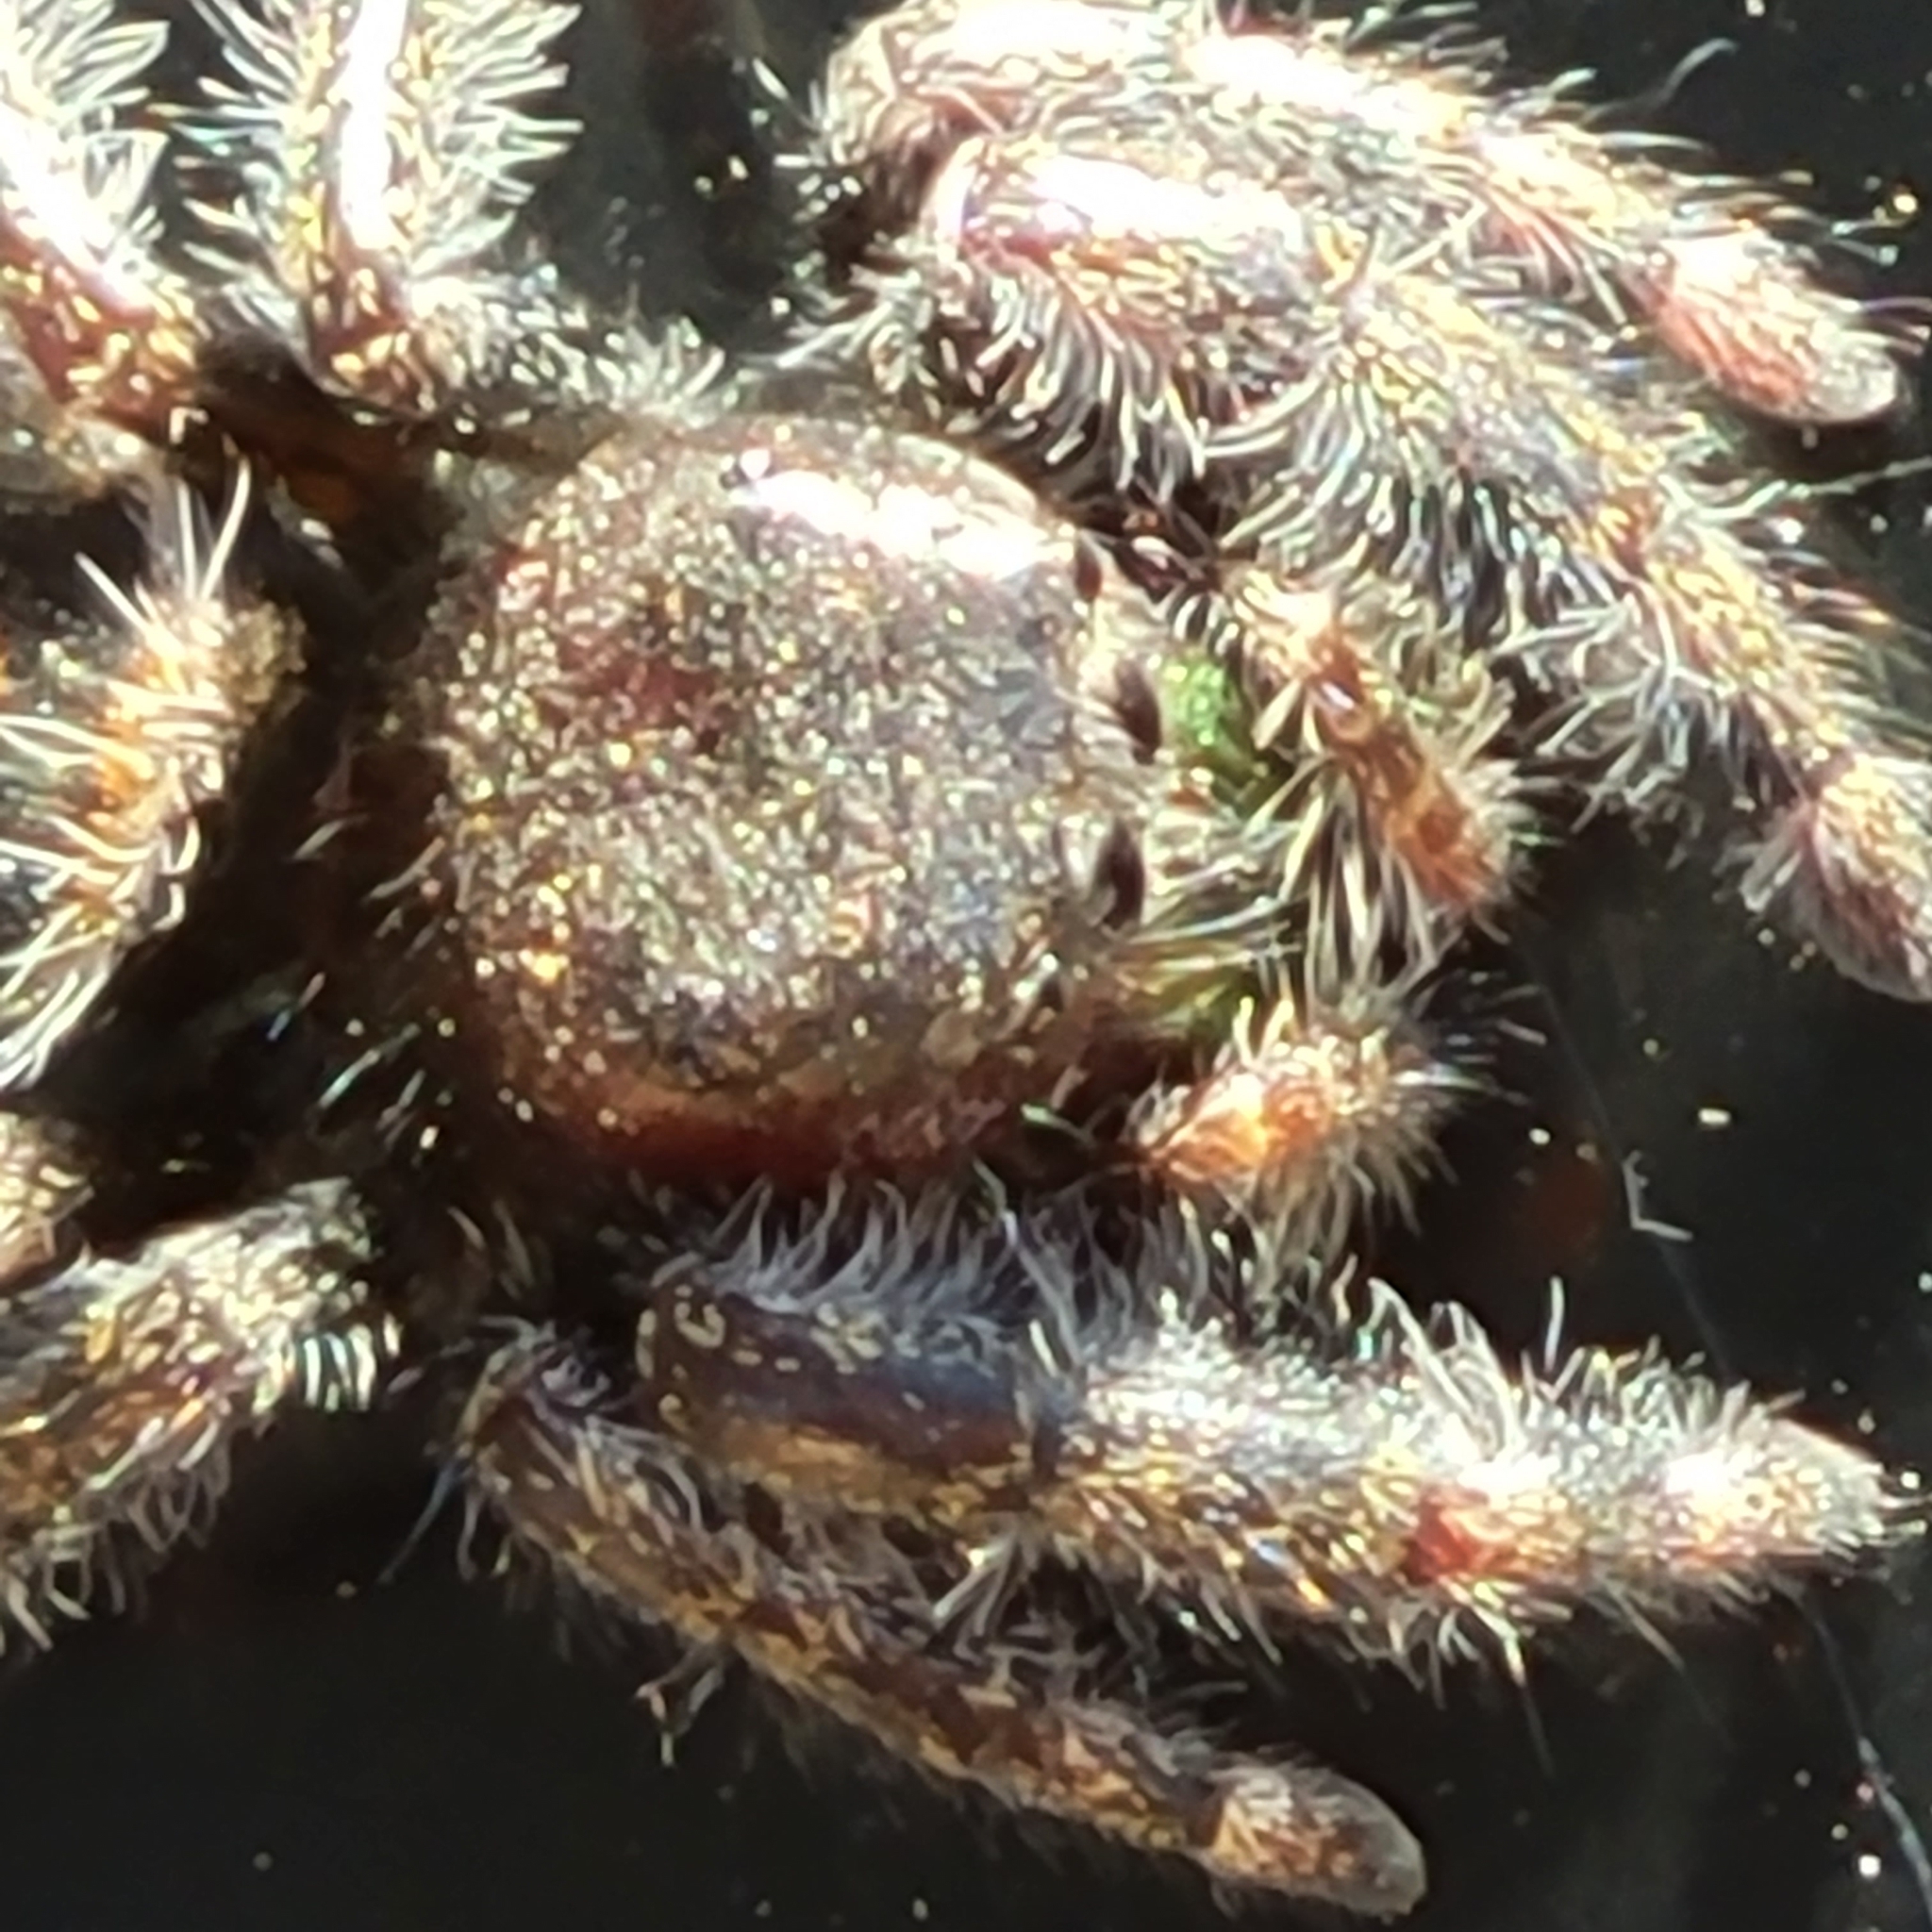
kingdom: Animalia
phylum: Arthropoda
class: Arachnida
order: Araneae
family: Salticidae
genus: Phidippus
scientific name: Phidippus audax
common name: Bold jumper
